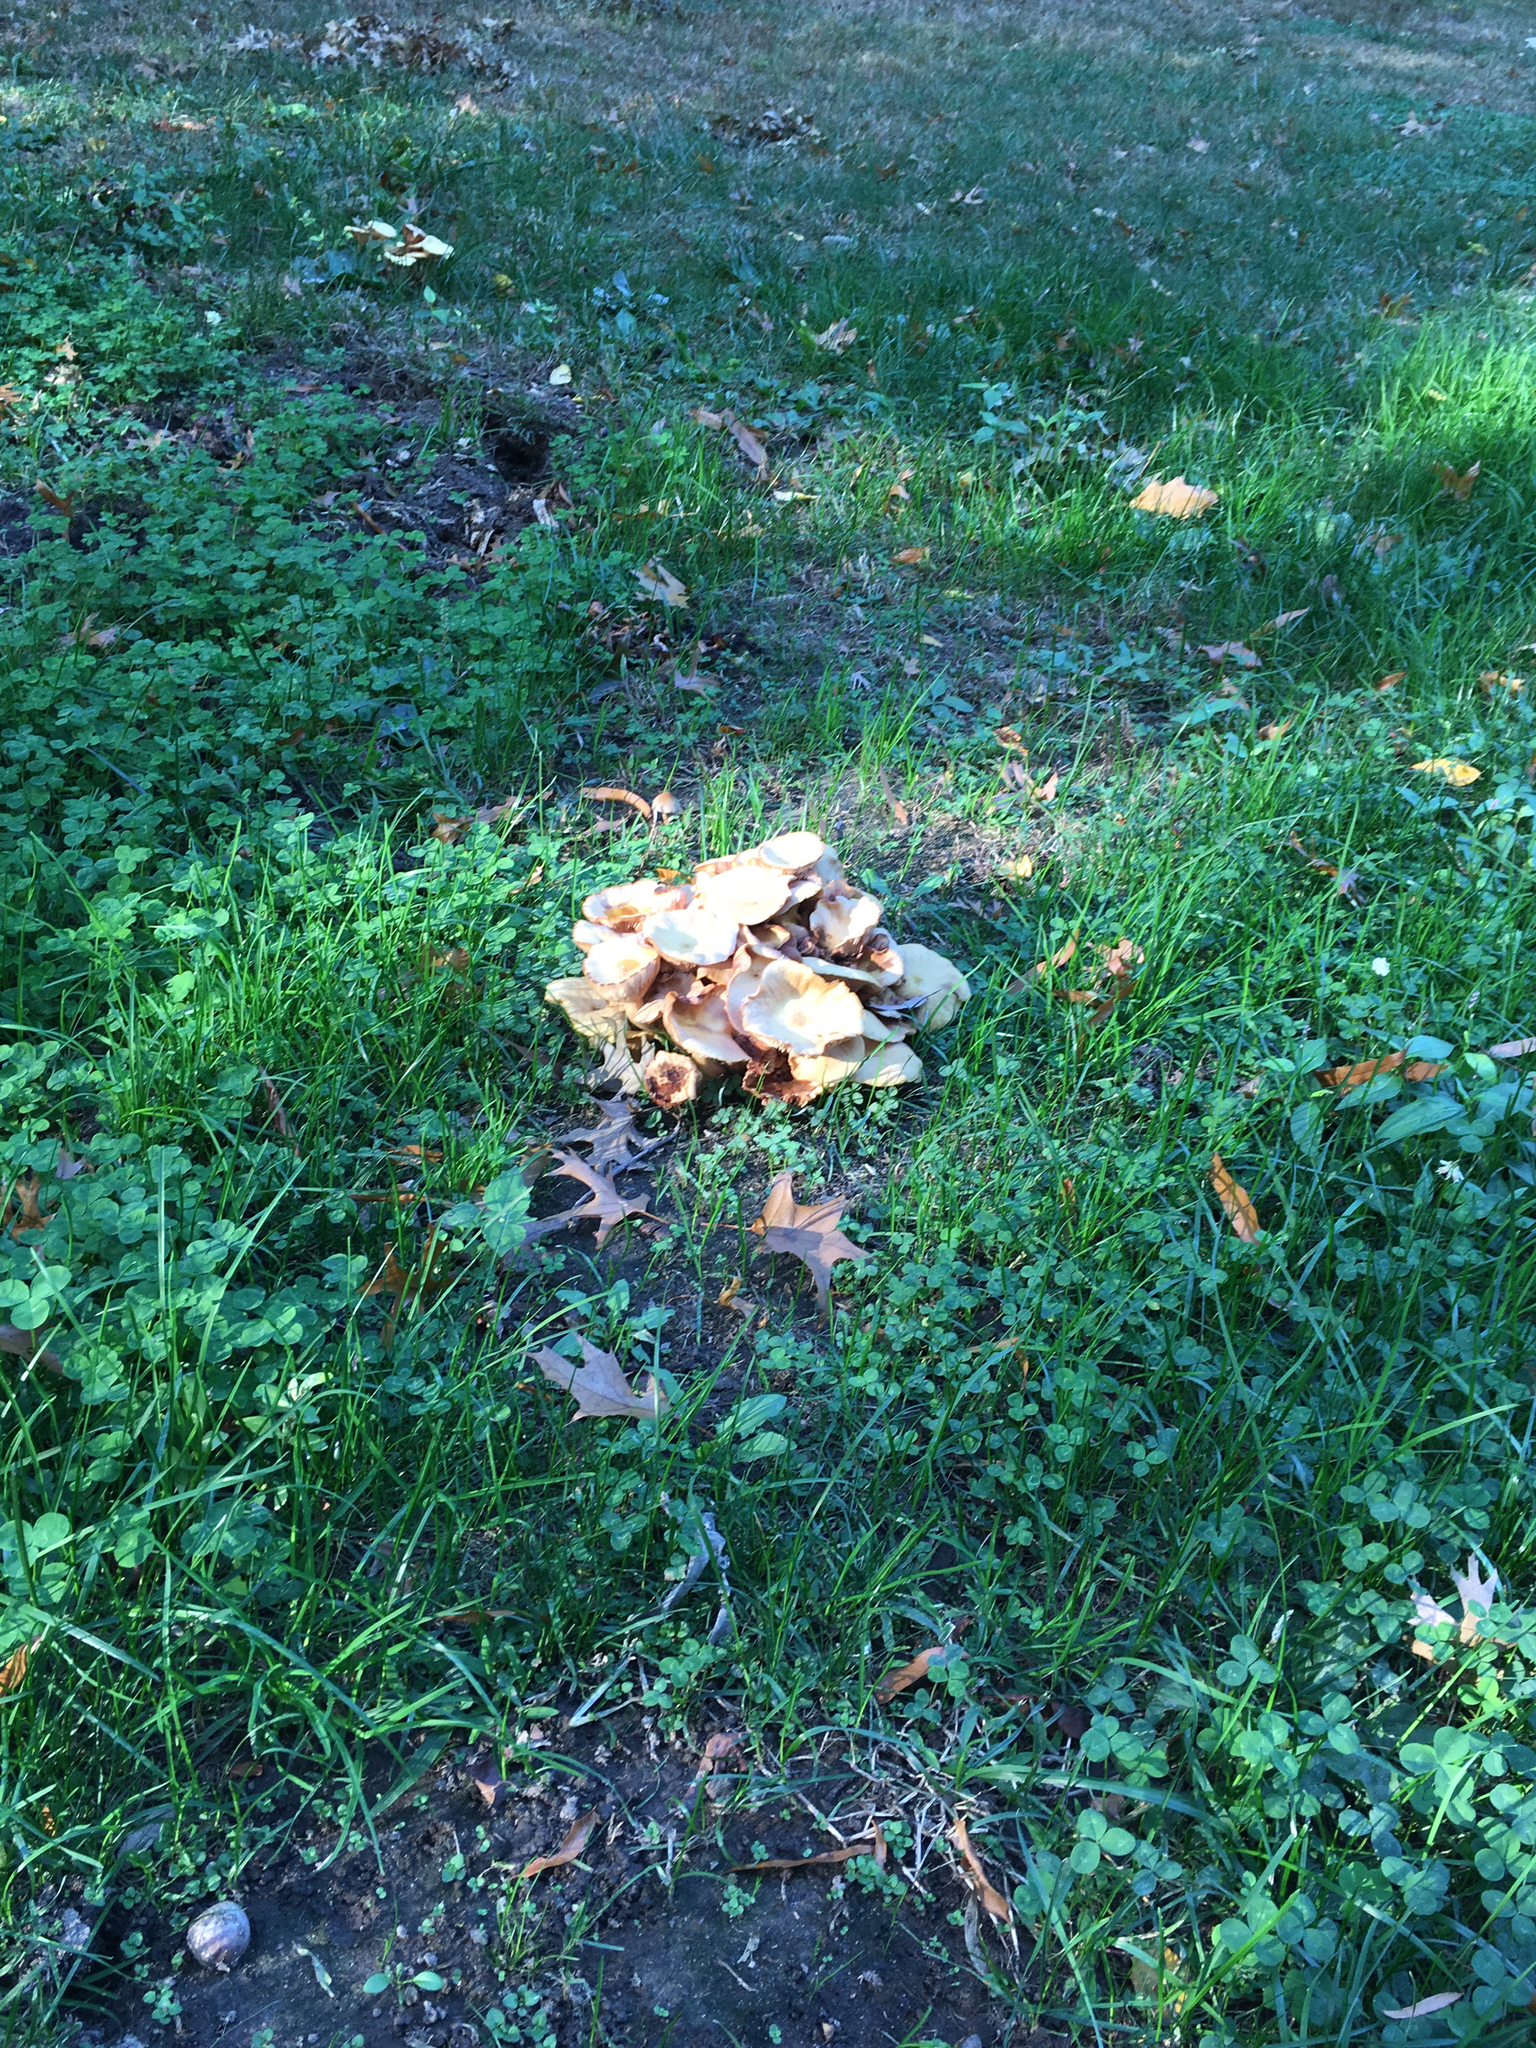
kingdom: Fungi
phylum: Basidiomycota
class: Agaricomycetes
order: Agaricales
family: Physalacriaceae
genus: Desarmillaria
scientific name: Desarmillaria caespitosa
